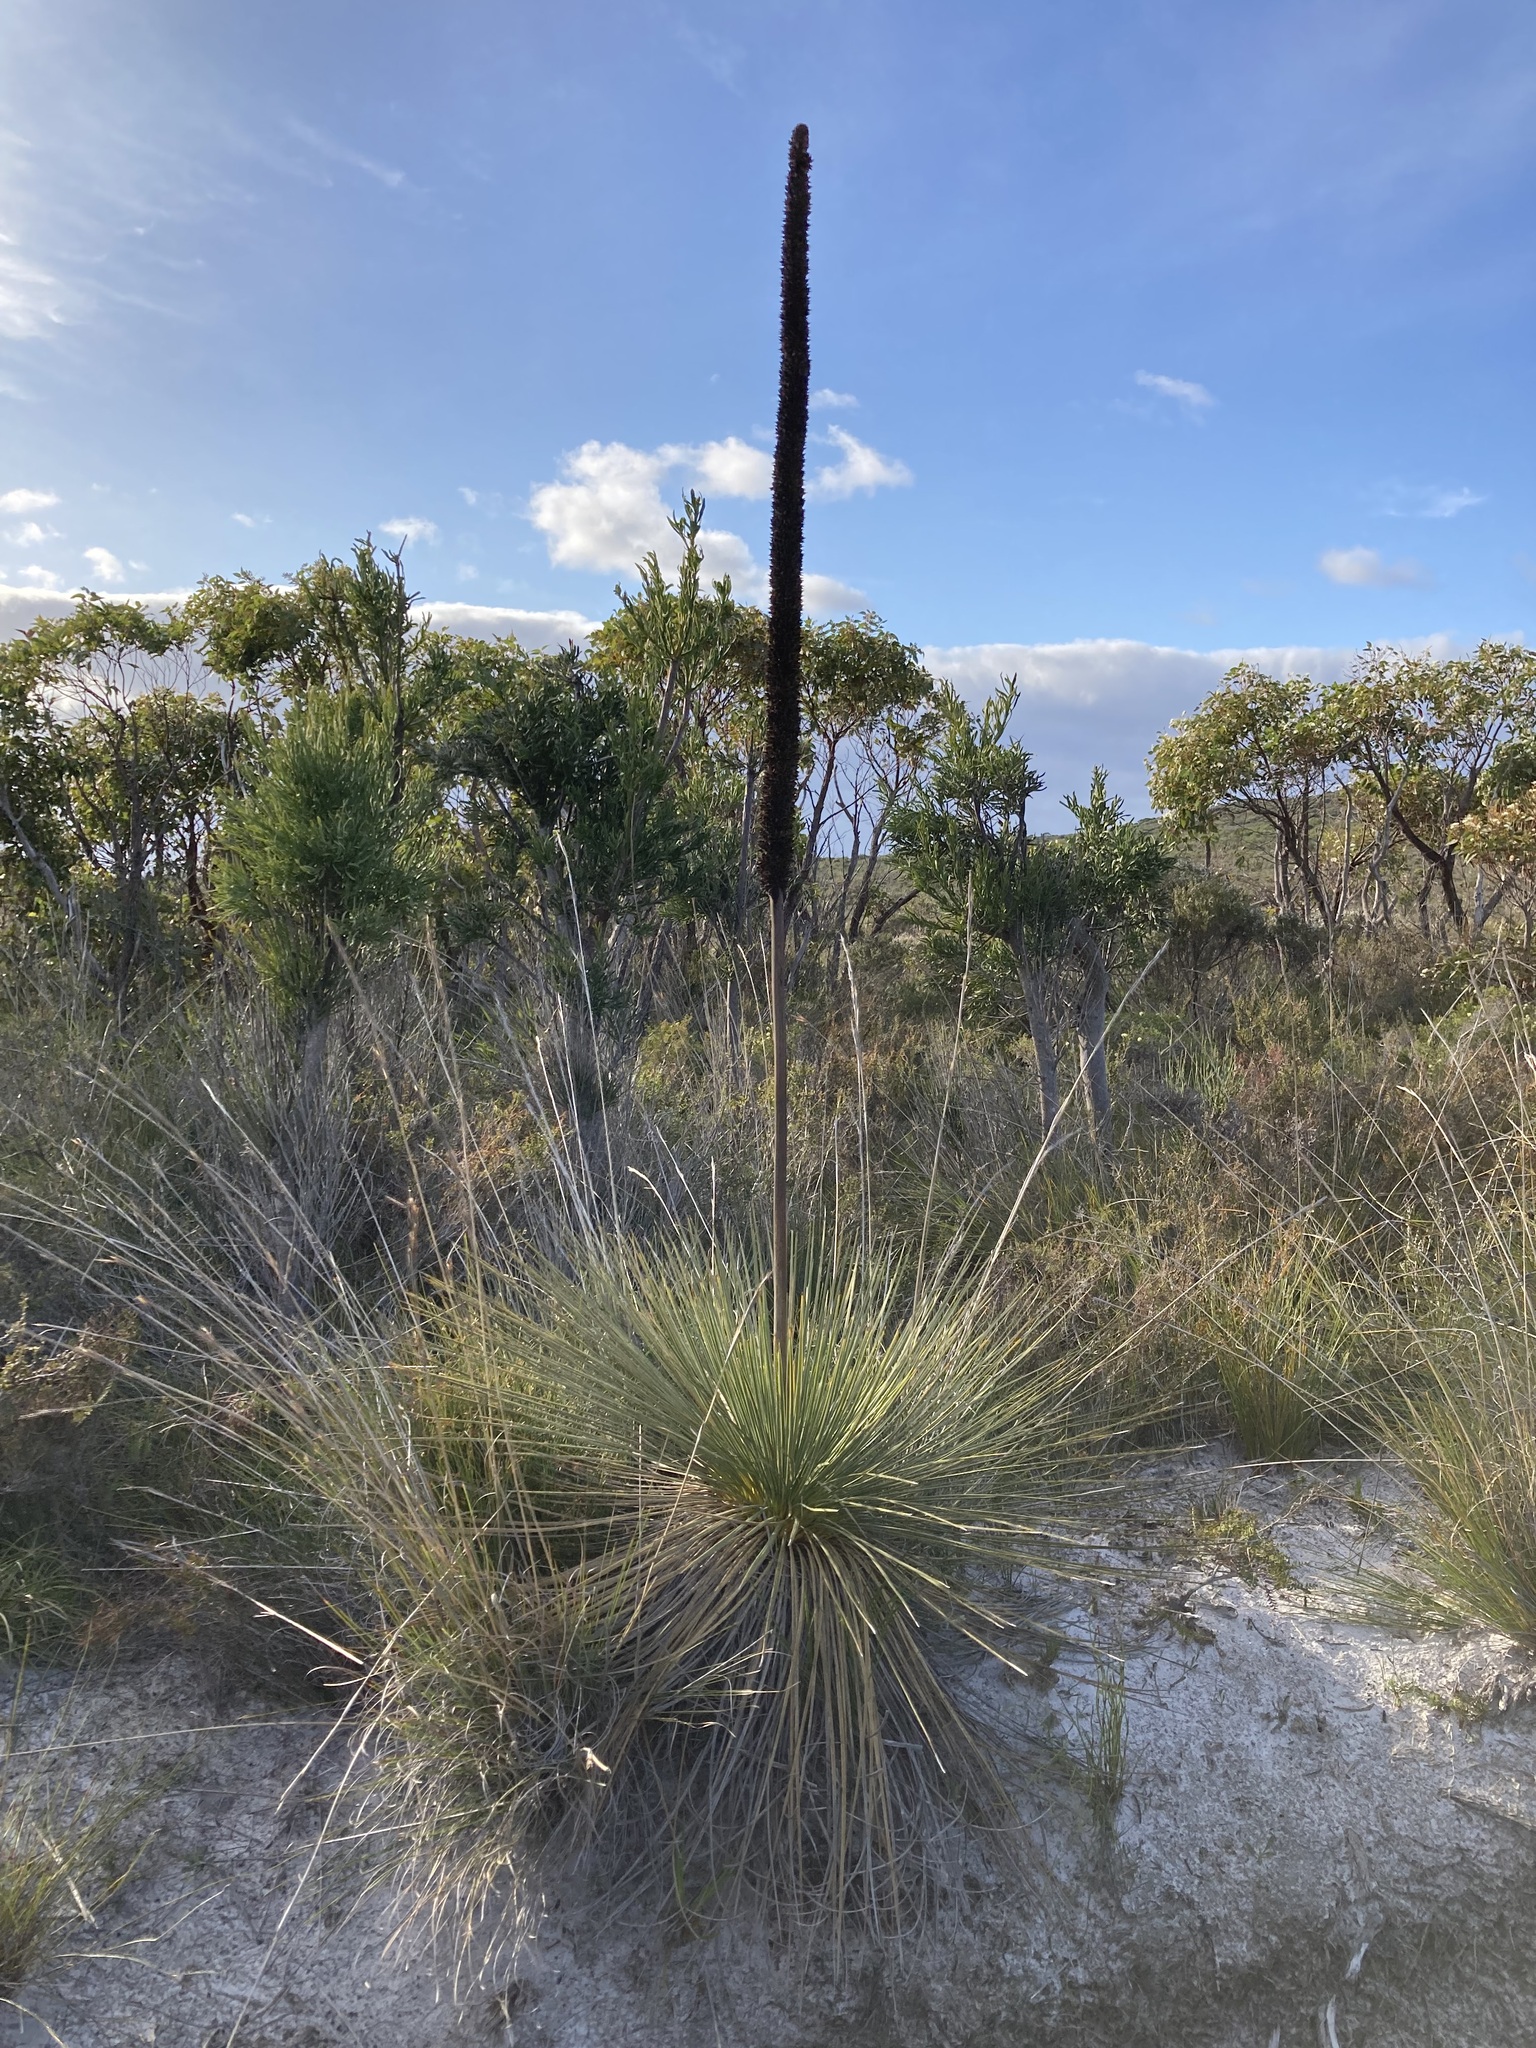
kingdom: Plantae
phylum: Tracheophyta
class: Liliopsida
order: Asparagales
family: Asphodelaceae
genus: Xanthorrhoea
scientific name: Xanthorrhoea platyphylla
